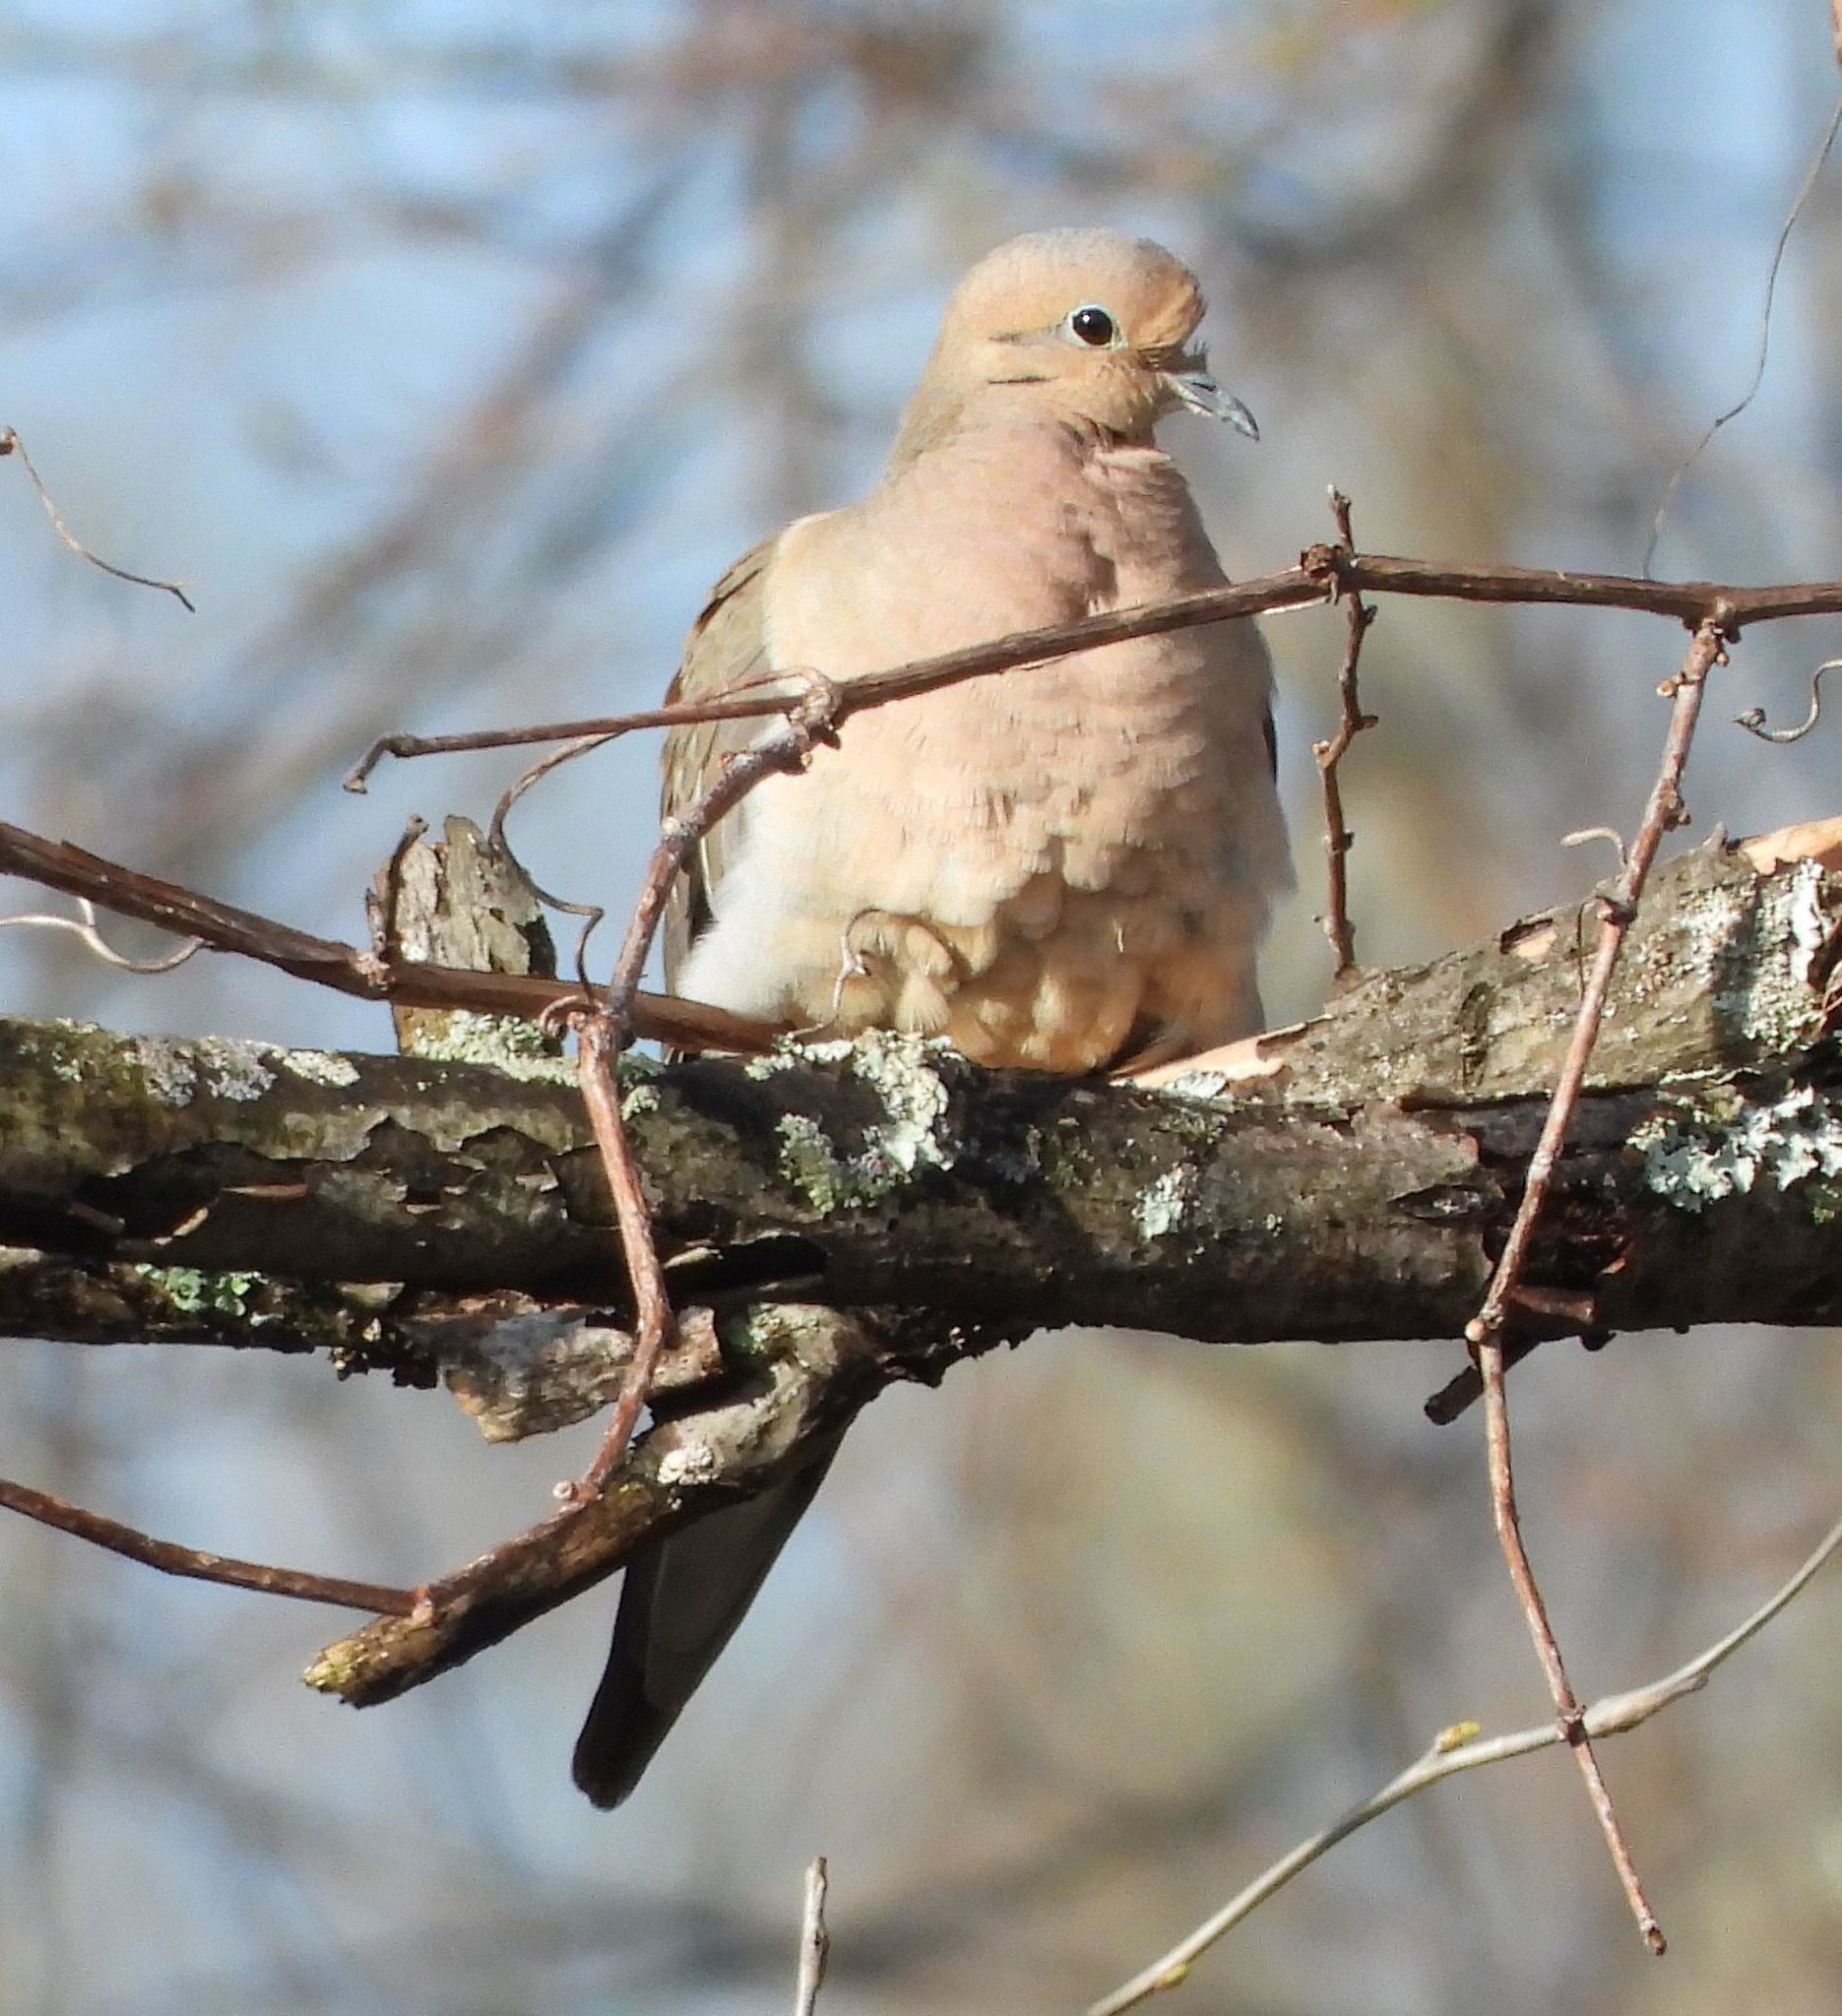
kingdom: Animalia
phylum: Chordata
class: Aves
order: Columbiformes
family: Columbidae
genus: Zenaida
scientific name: Zenaida macroura
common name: Mourning dove
